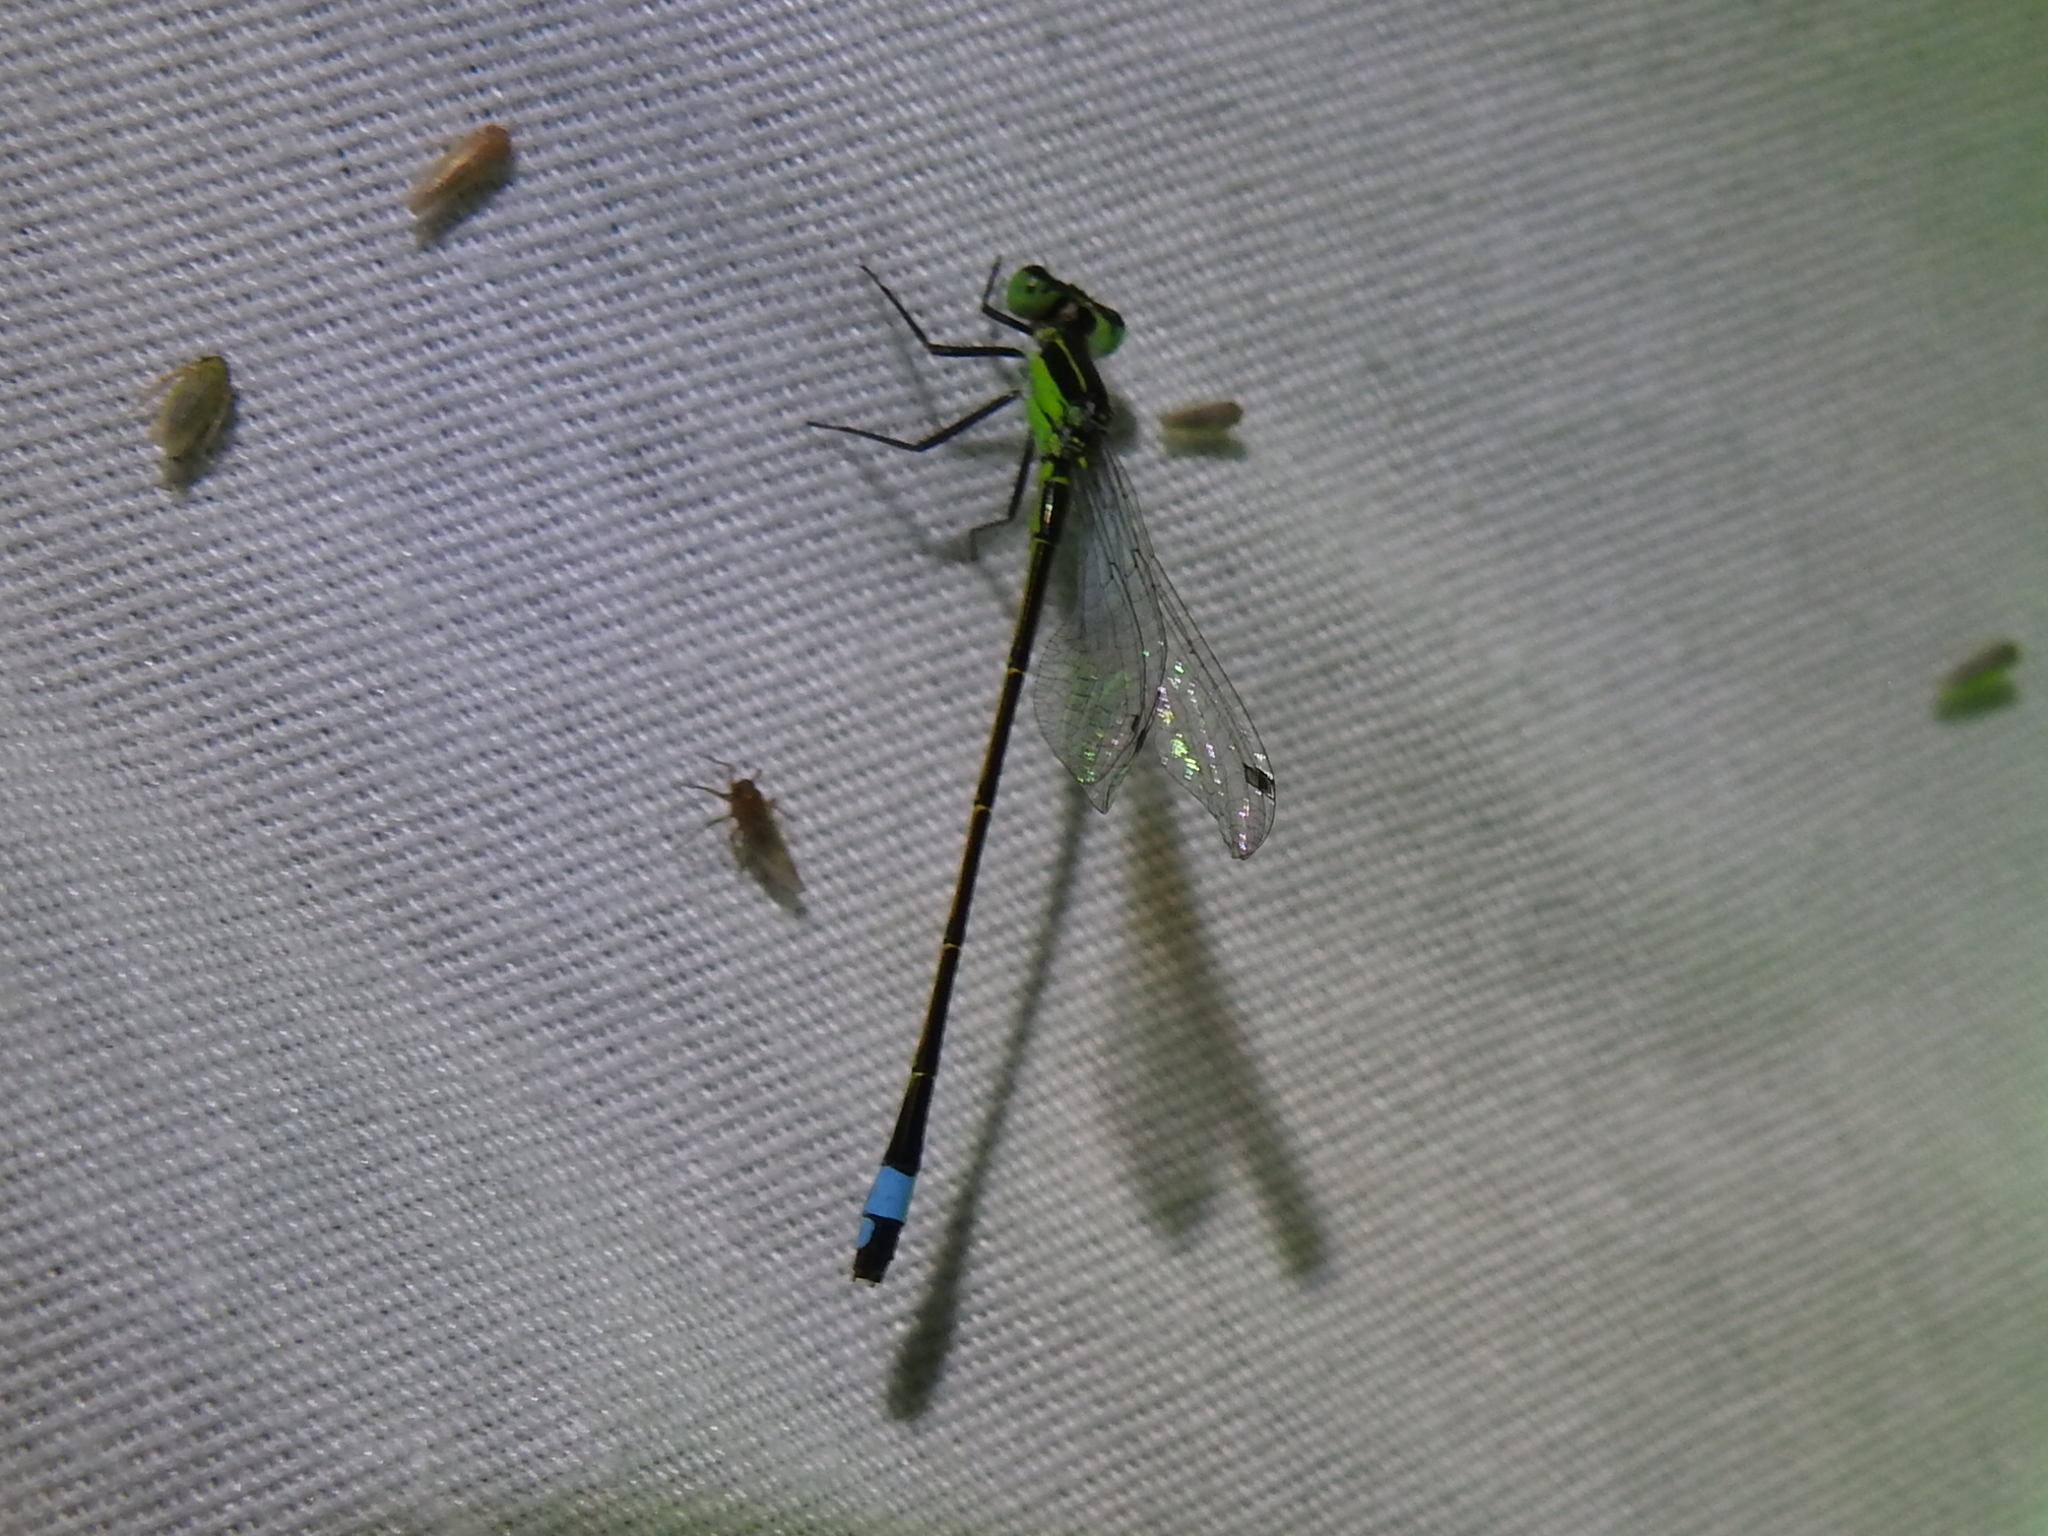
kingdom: Animalia
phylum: Arthropoda
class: Insecta
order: Odonata
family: Coenagrionidae
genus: Ischnura
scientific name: Ischnura ramburii
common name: Rambur's forktail
